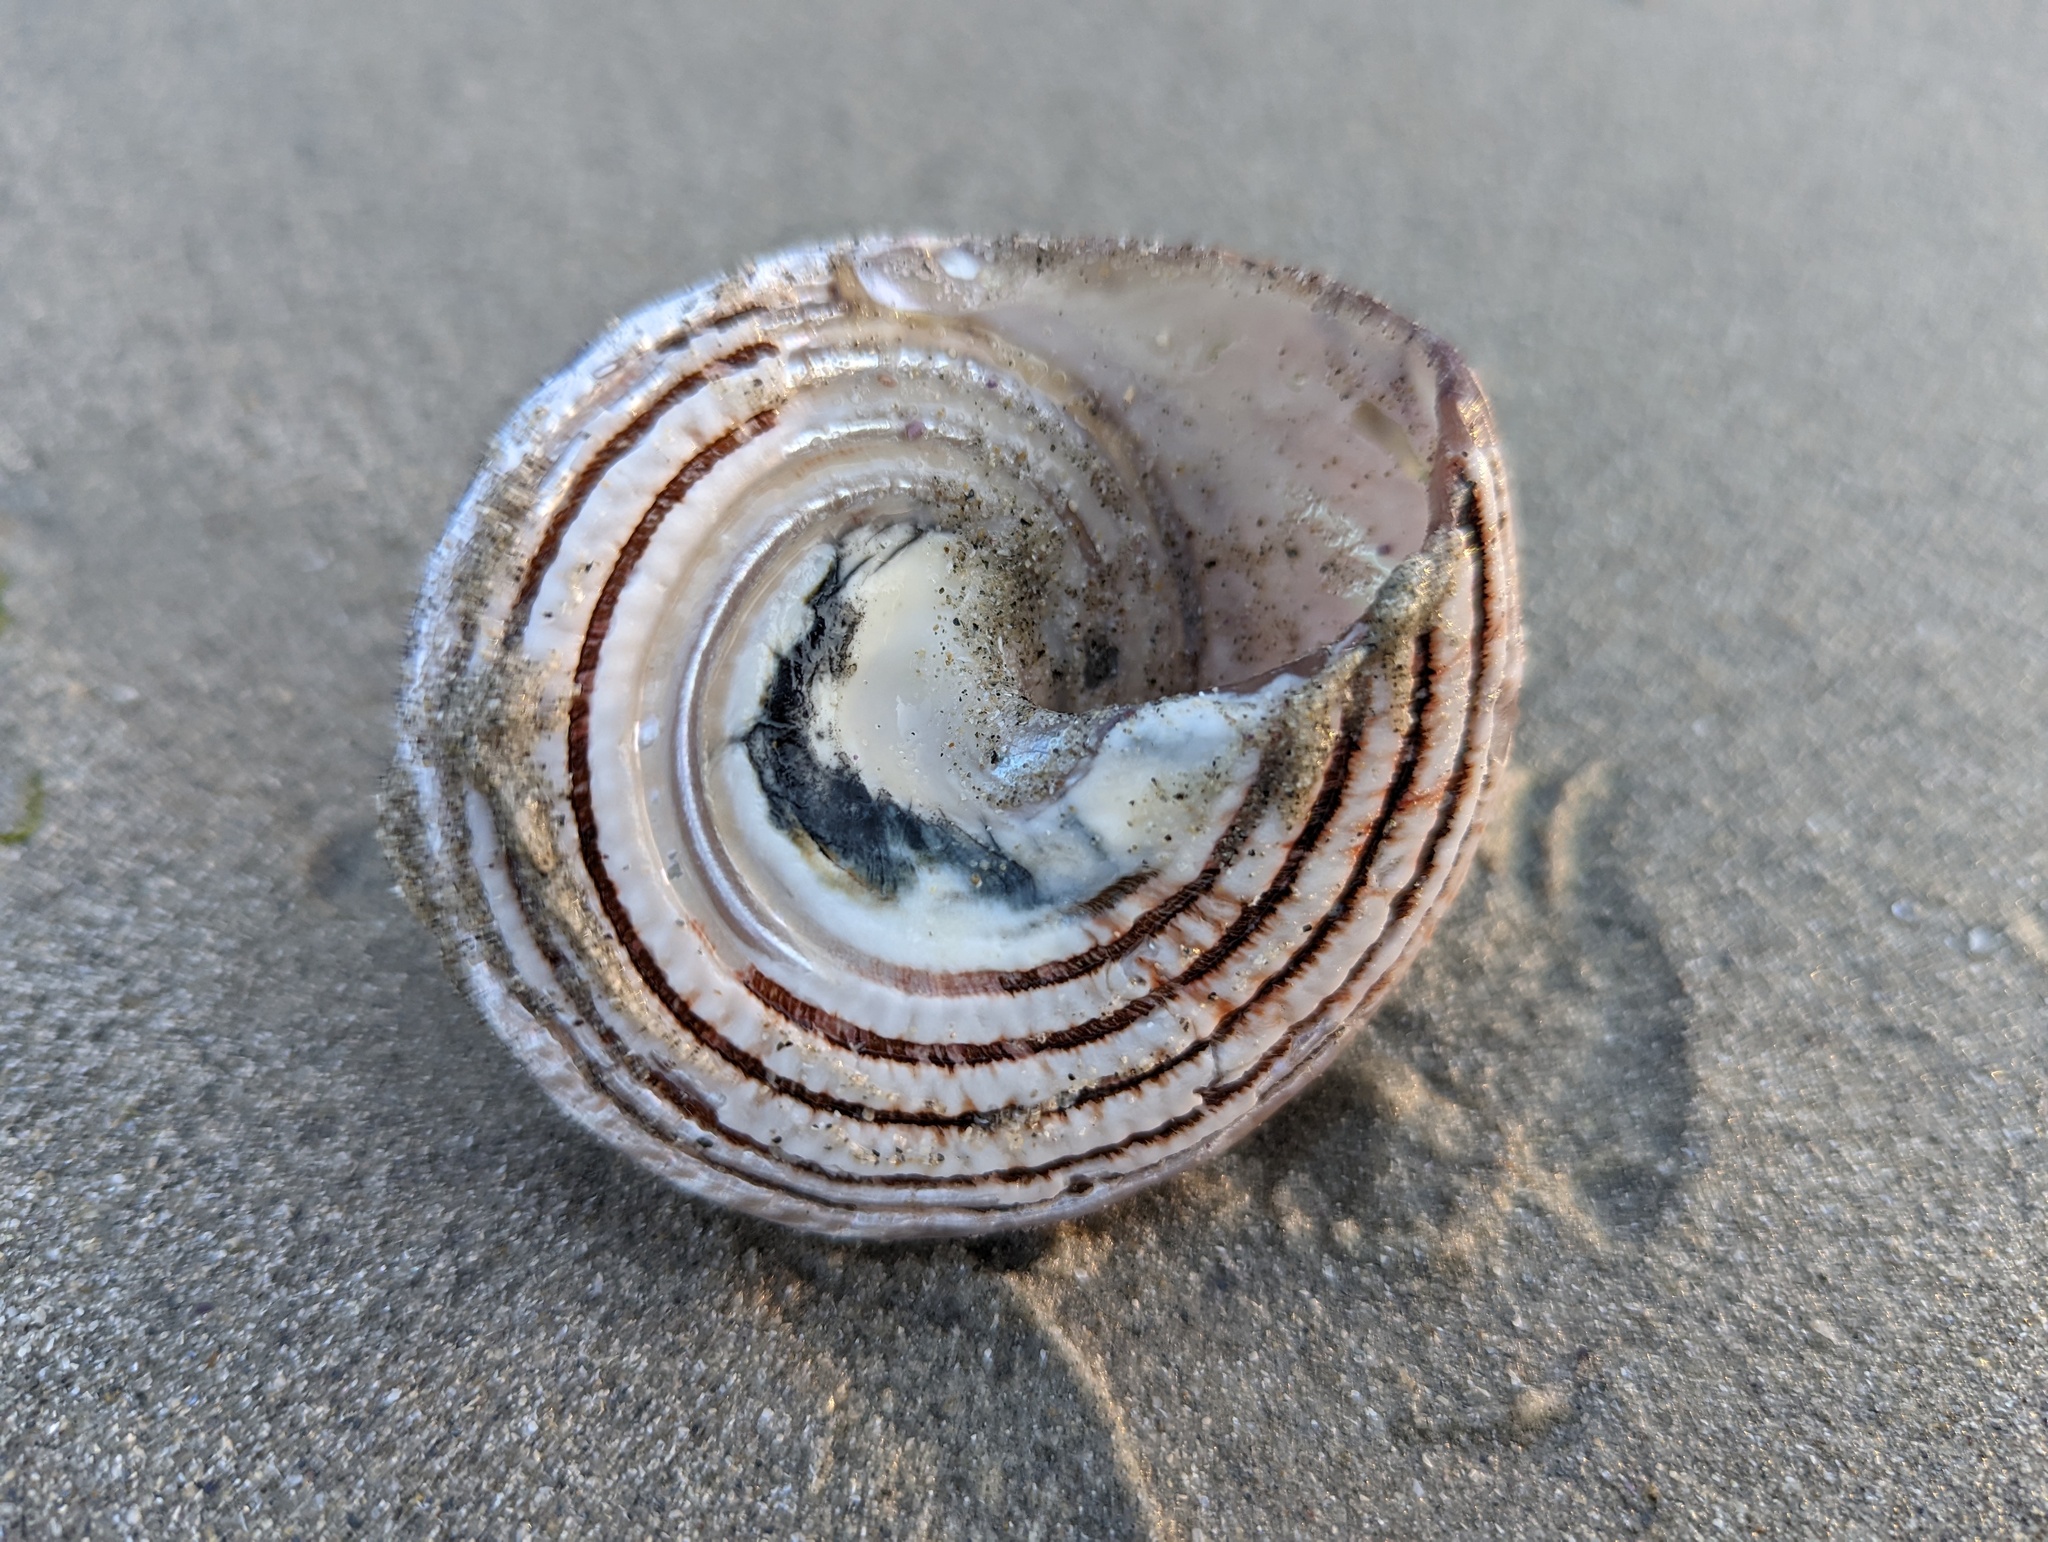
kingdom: Animalia
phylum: Mollusca
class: Gastropoda
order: Trochida
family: Turbinidae
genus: Pomaulax
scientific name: Pomaulax gibberosus
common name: Red turban
